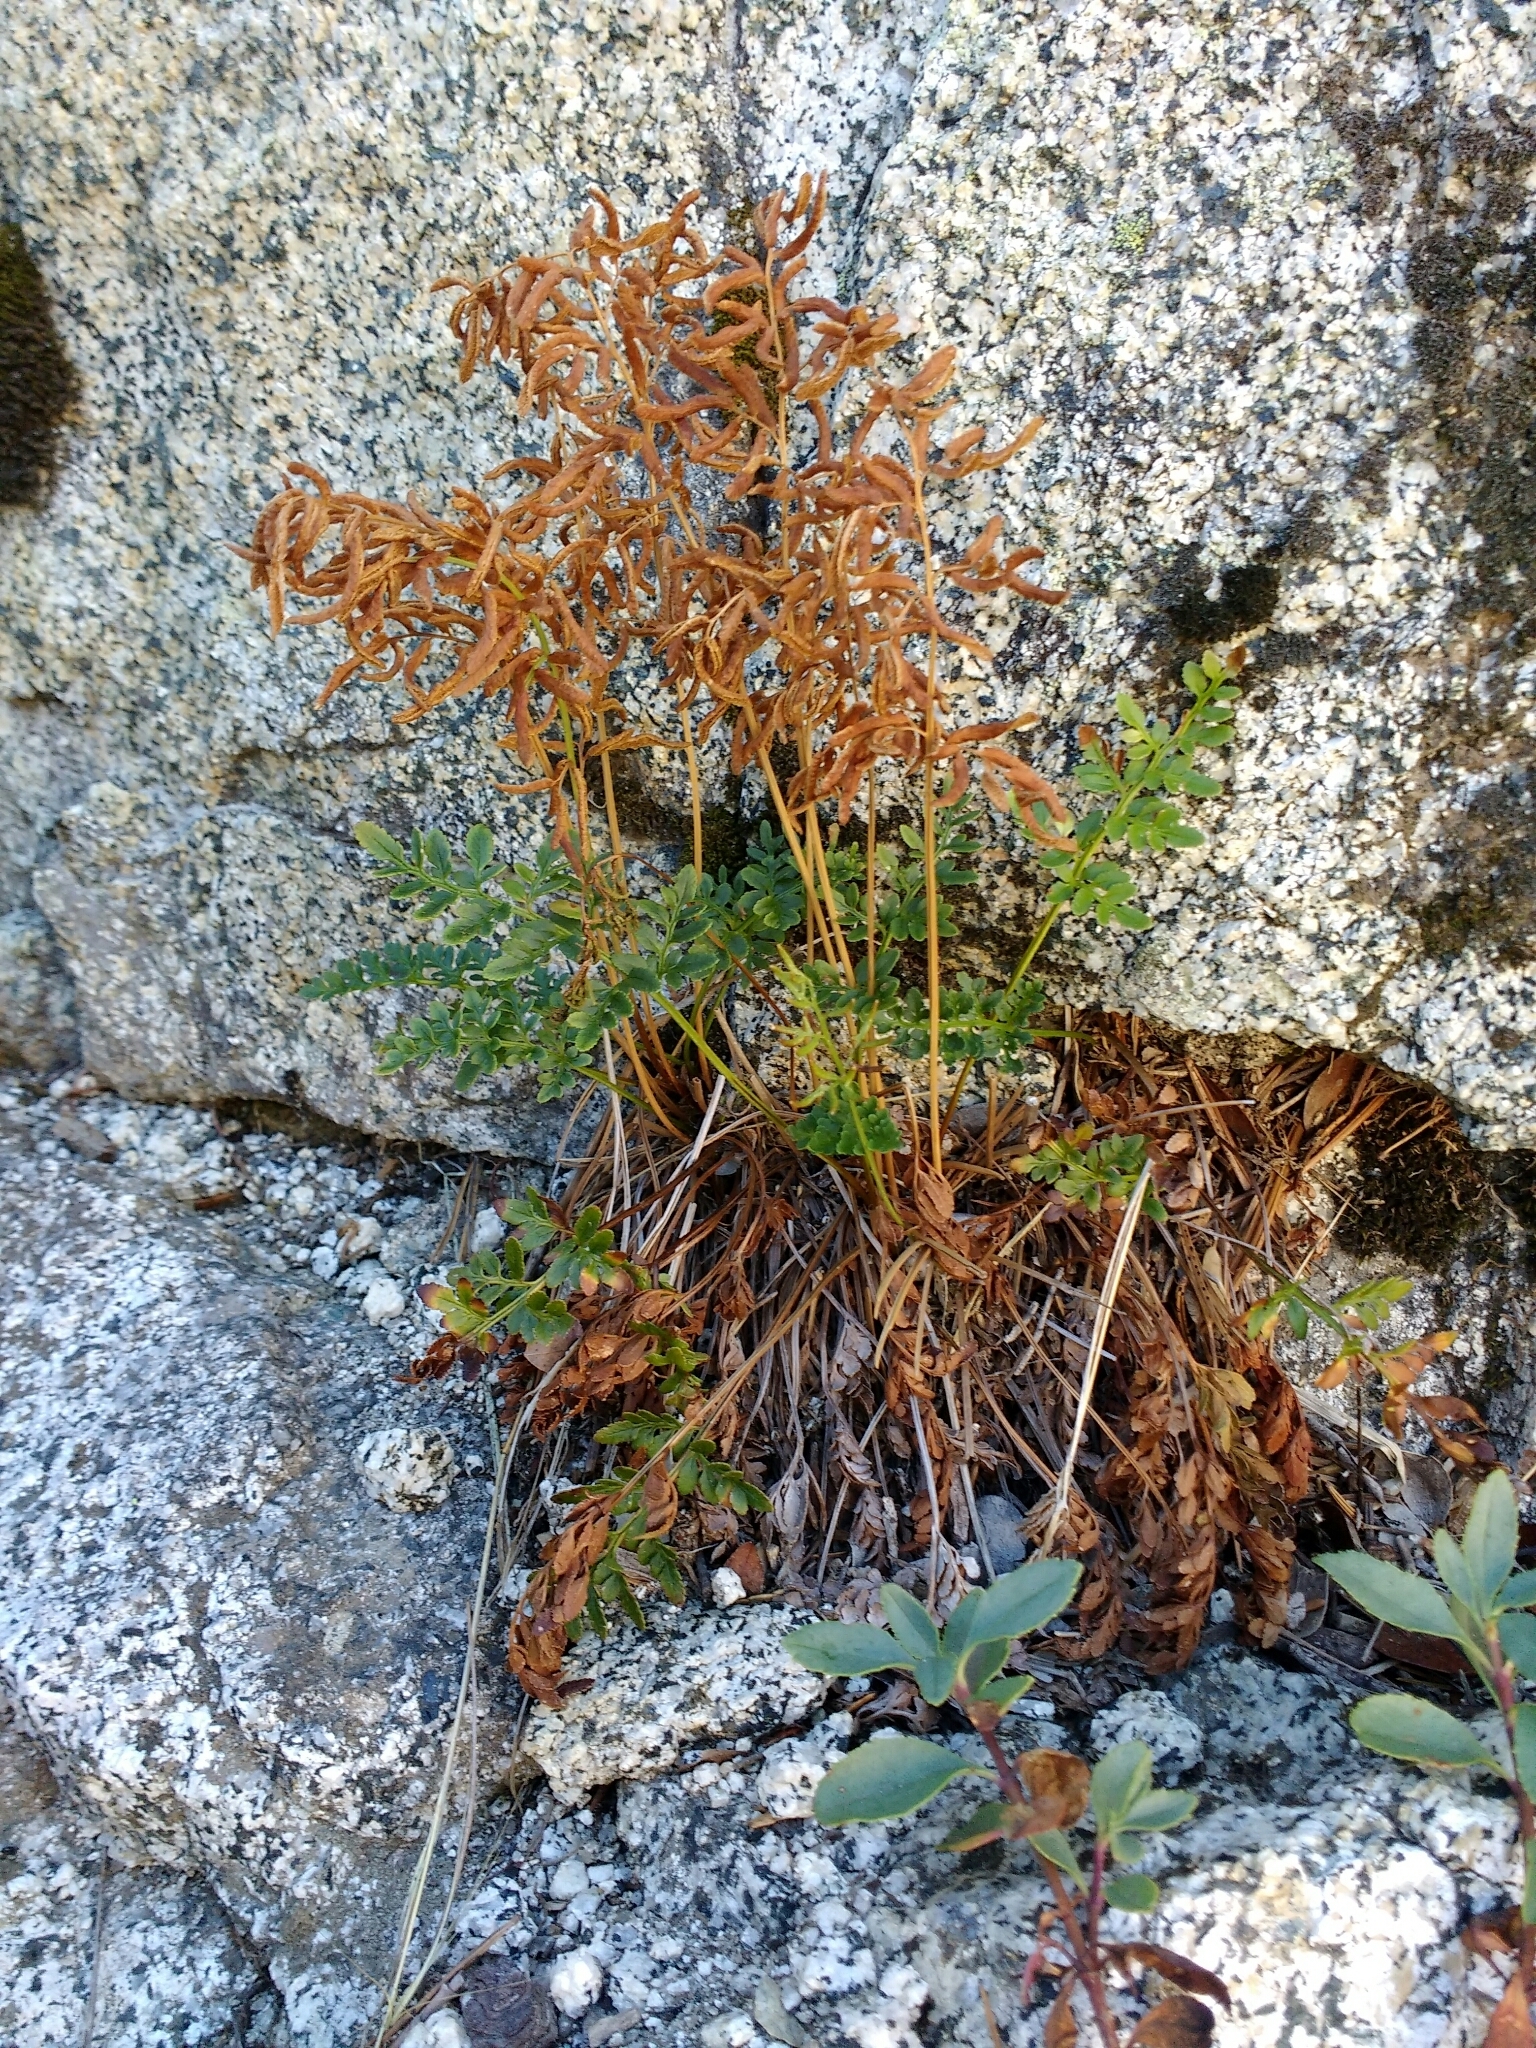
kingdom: Plantae
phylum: Tracheophyta
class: Polypodiopsida
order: Polypodiales
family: Pteridaceae
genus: Cryptogramma
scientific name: Cryptogramma acrostichoides
